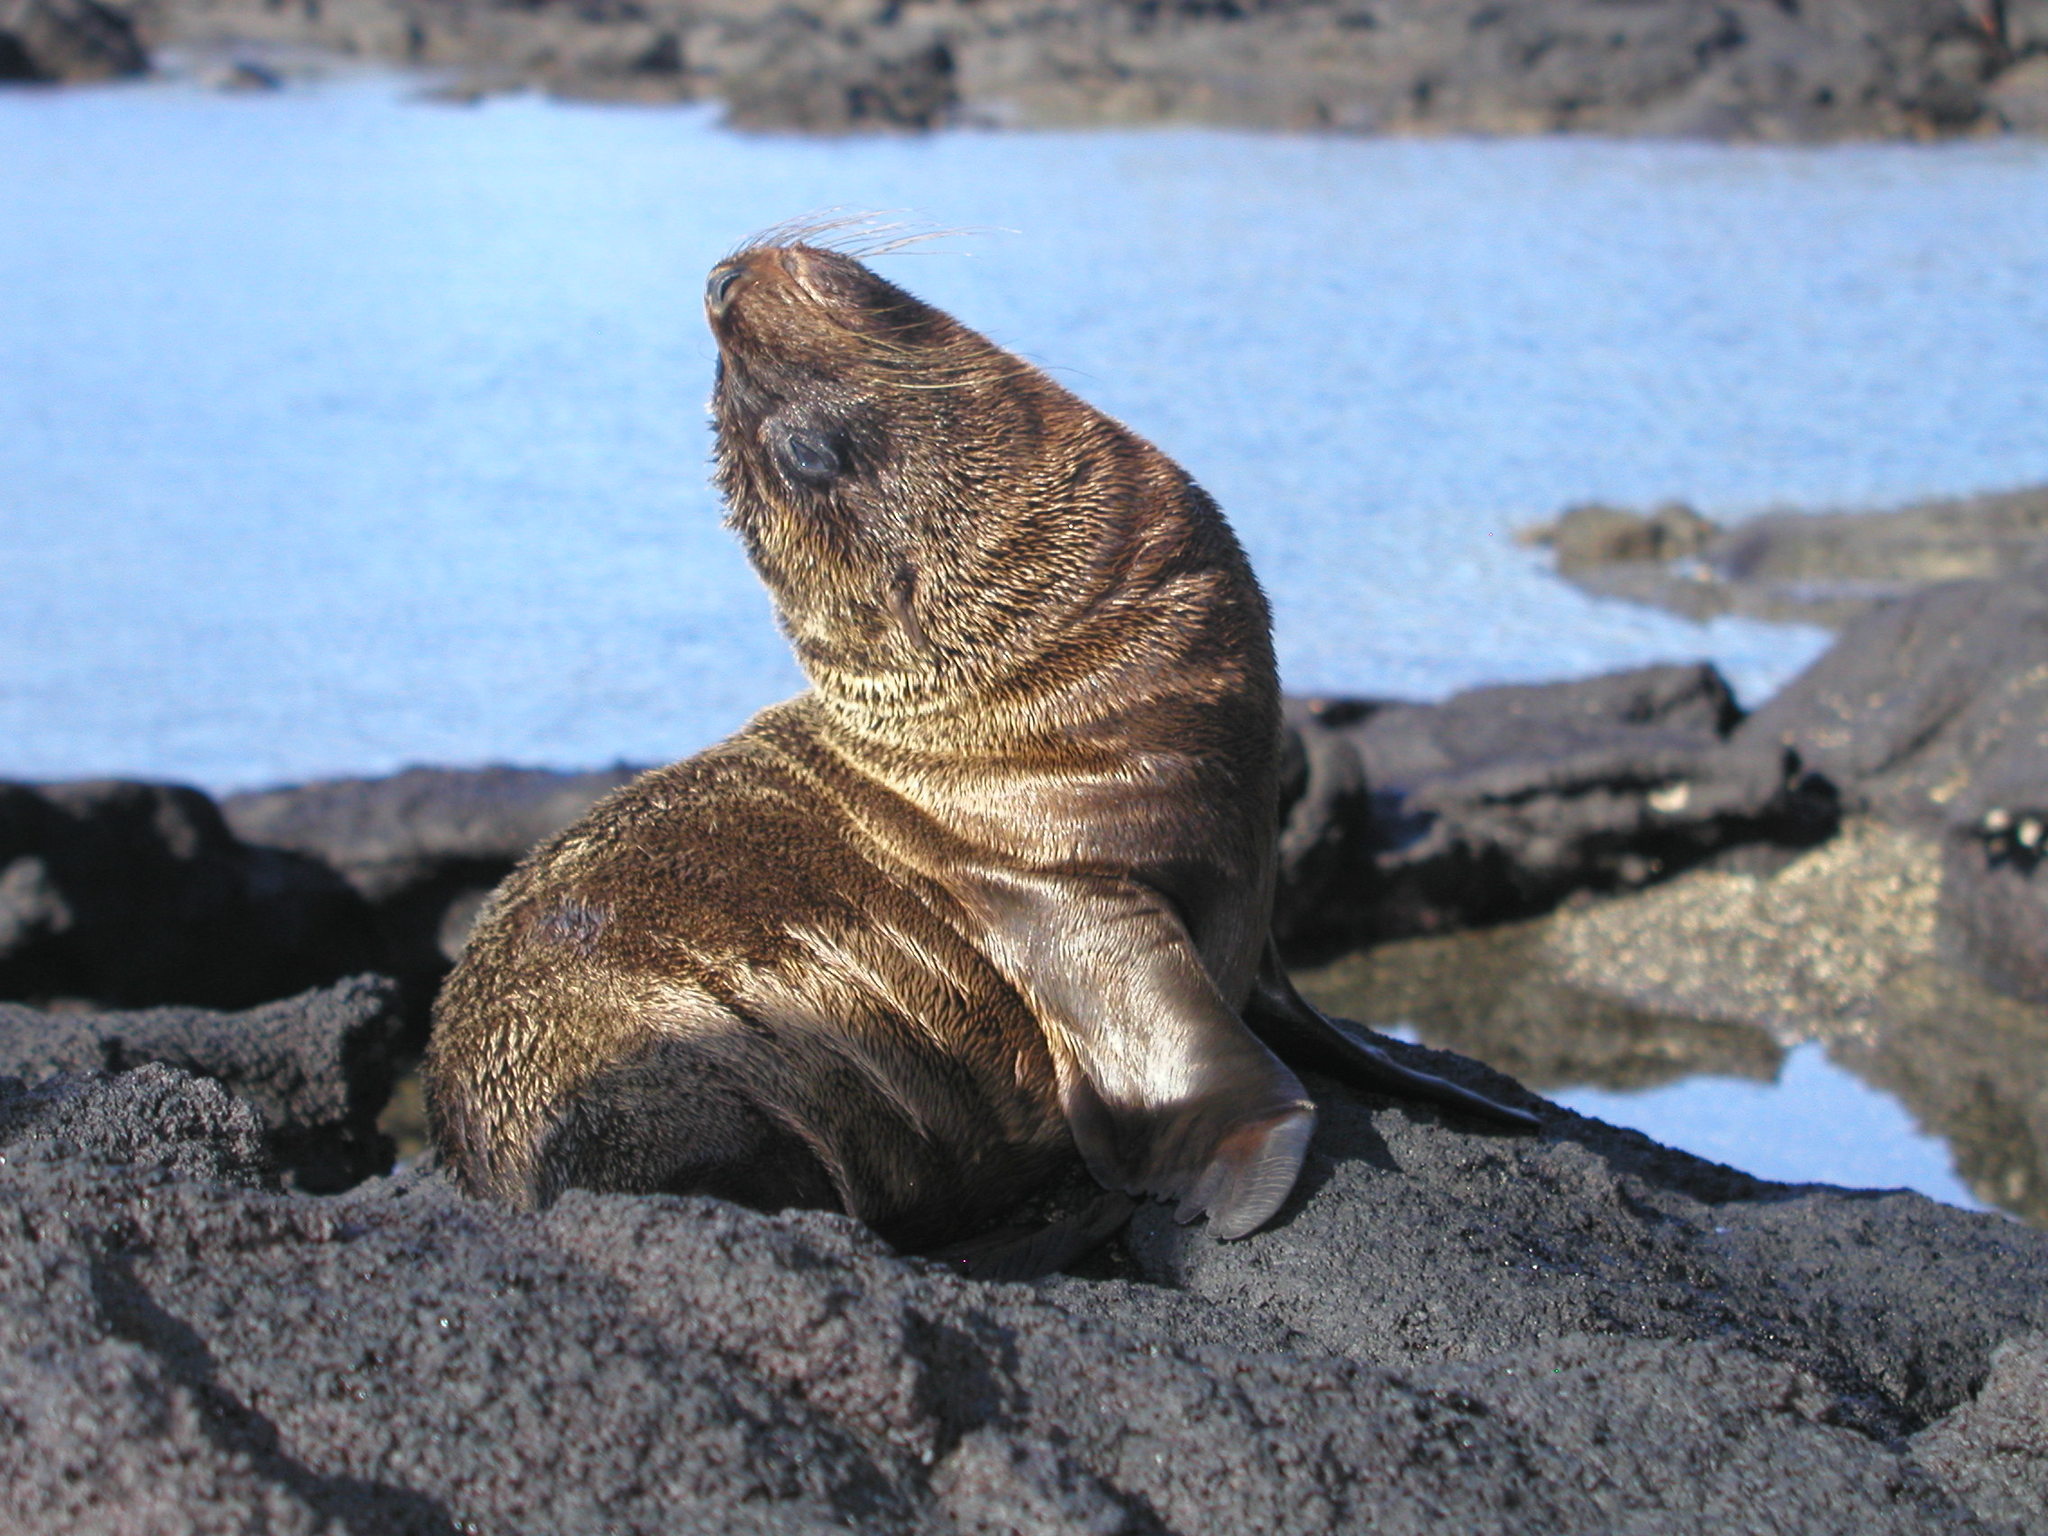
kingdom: Animalia
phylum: Chordata
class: Mammalia
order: Carnivora
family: Otariidae
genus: Arctocephalus
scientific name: Arctocephalus galapagoensis
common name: Galapagos fur seal
